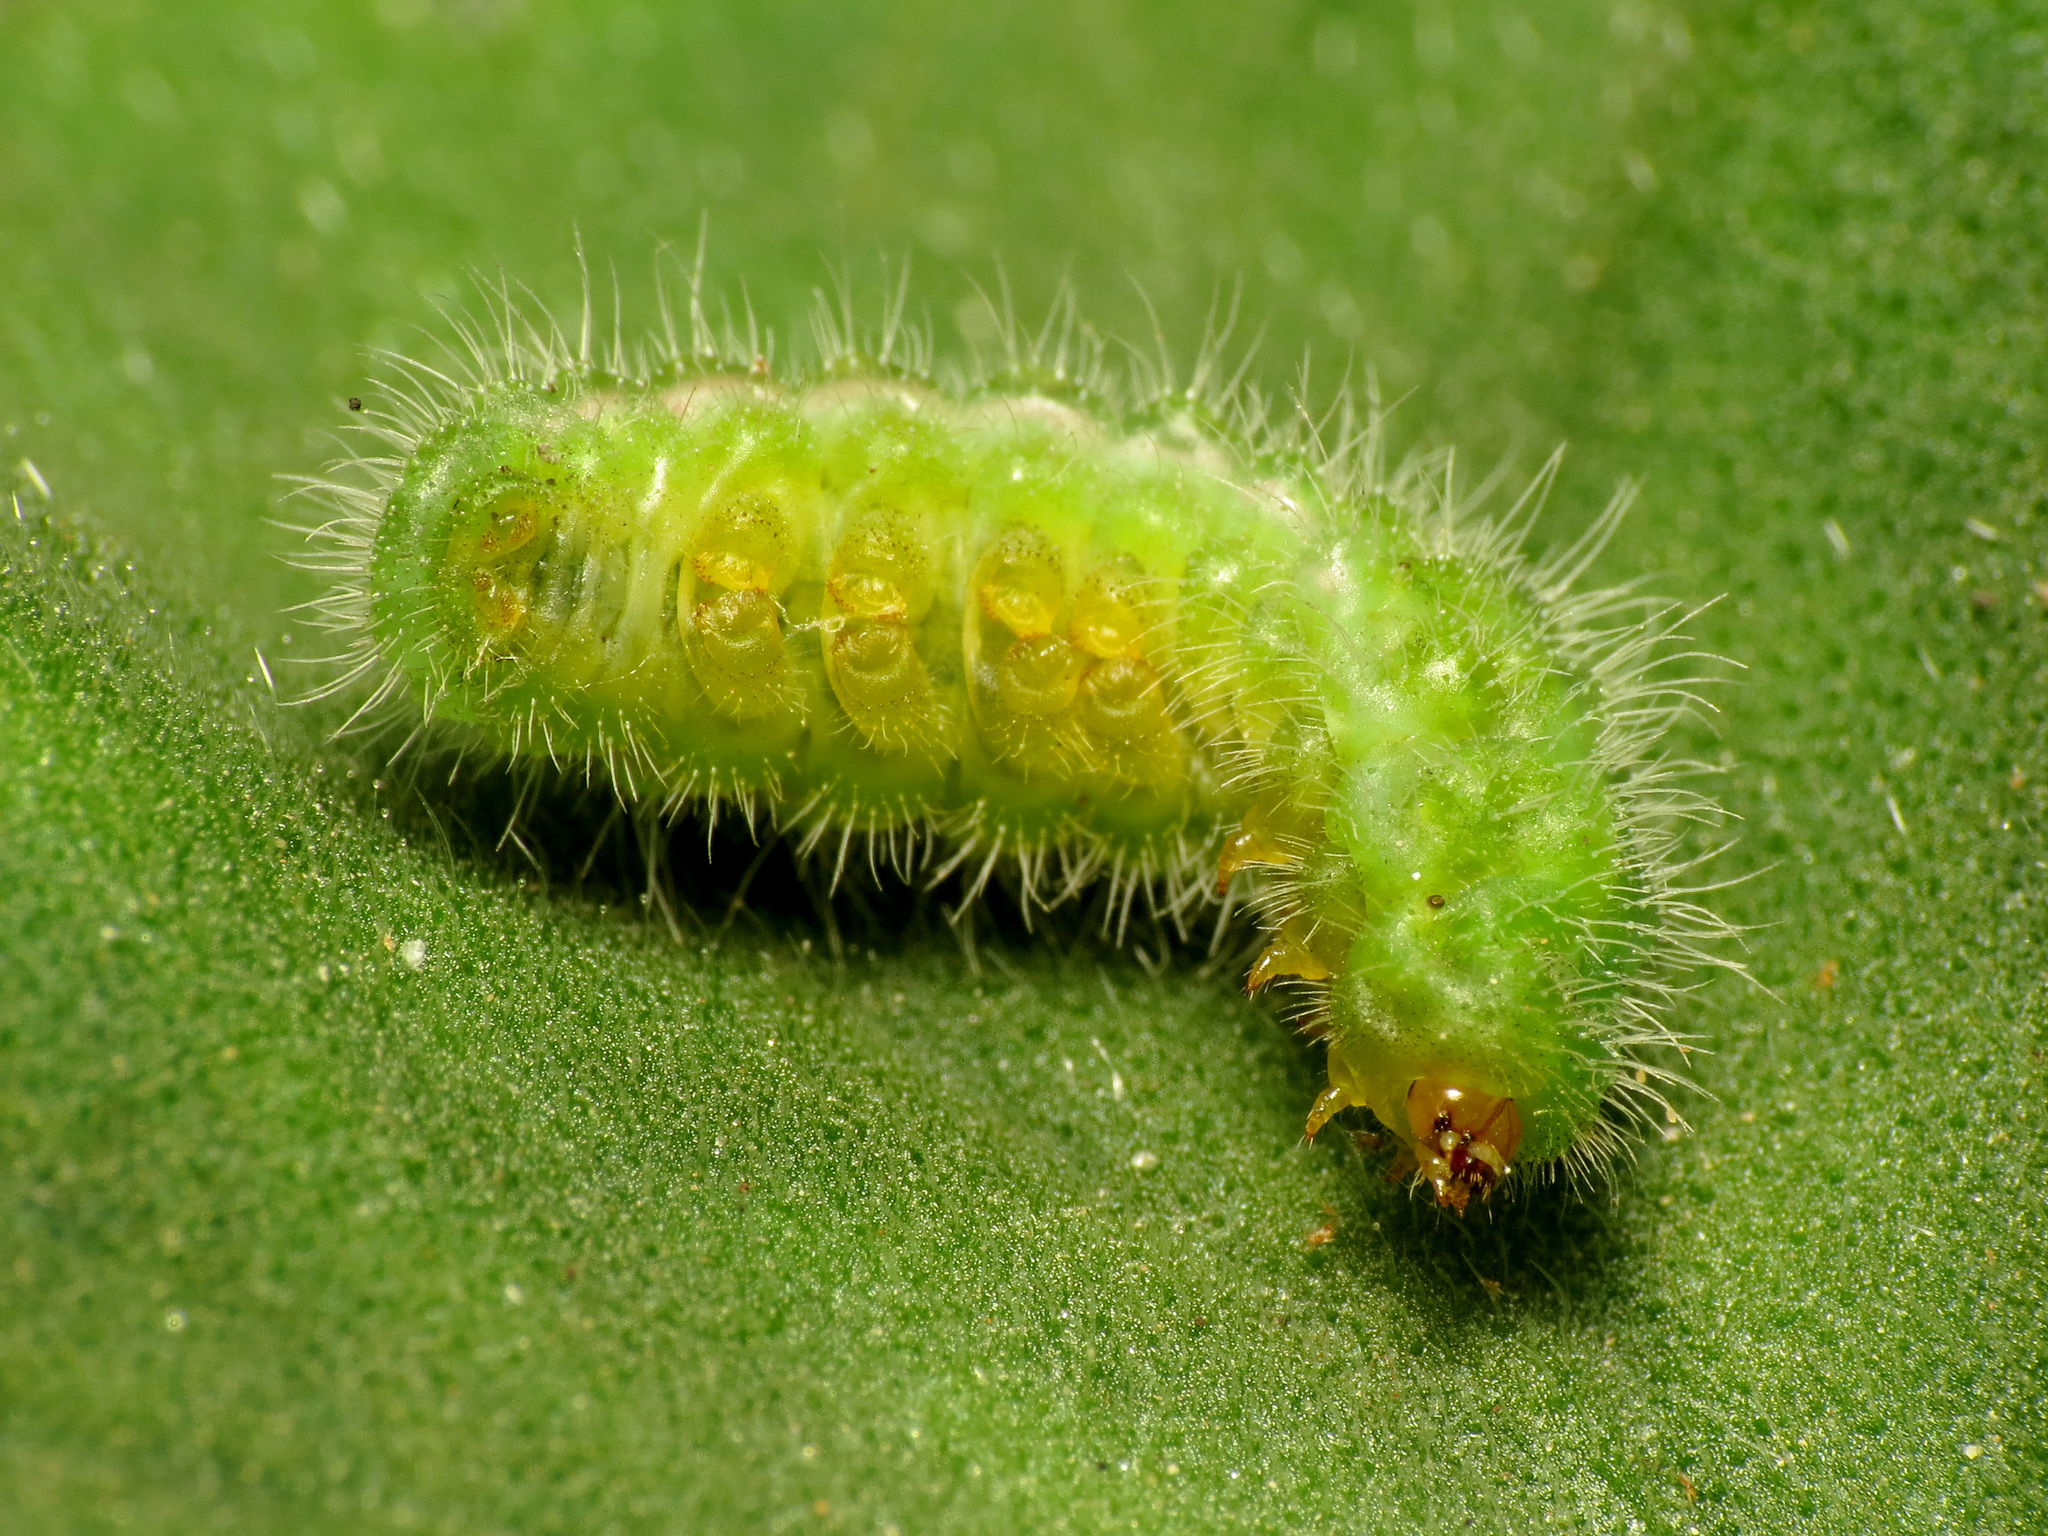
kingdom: Animalia
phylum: Arthropoda
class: Insecta
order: Lepidoptera
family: Lycaenidae
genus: Cacyreus
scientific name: Cacyreus marshalli
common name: Geranium bronze
